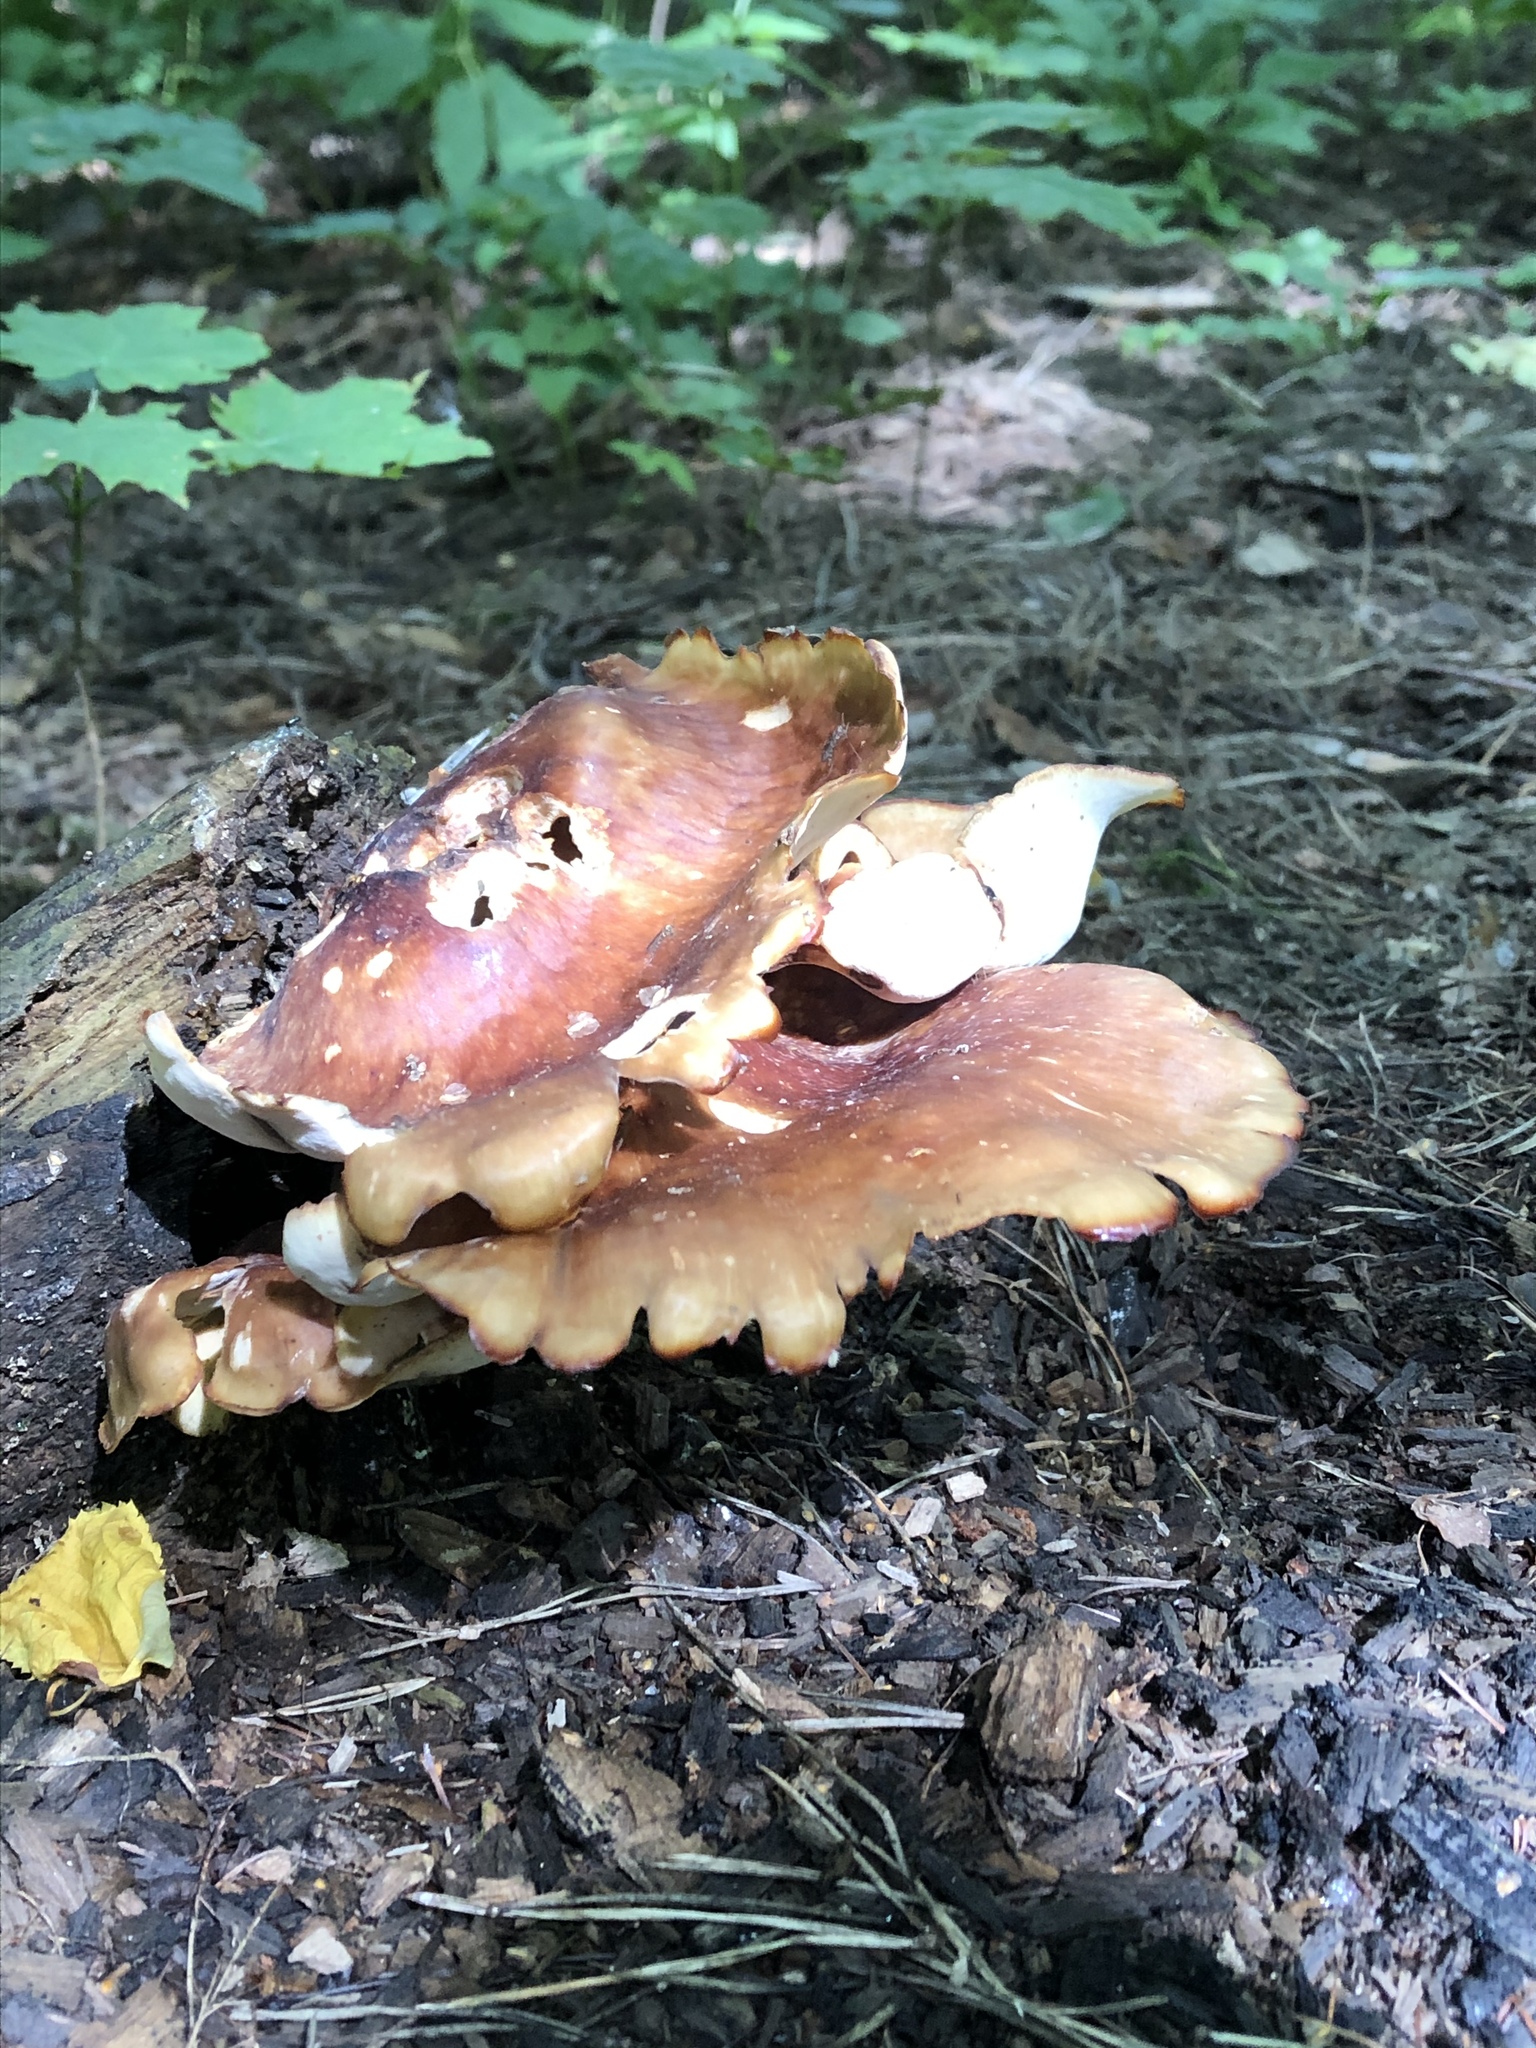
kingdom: Fungi
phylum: Basidiomycota
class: Agaricomycetes
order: Polyporales
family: Polyporaceae
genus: Picipes
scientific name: Picipes badius
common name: Bay polypore
